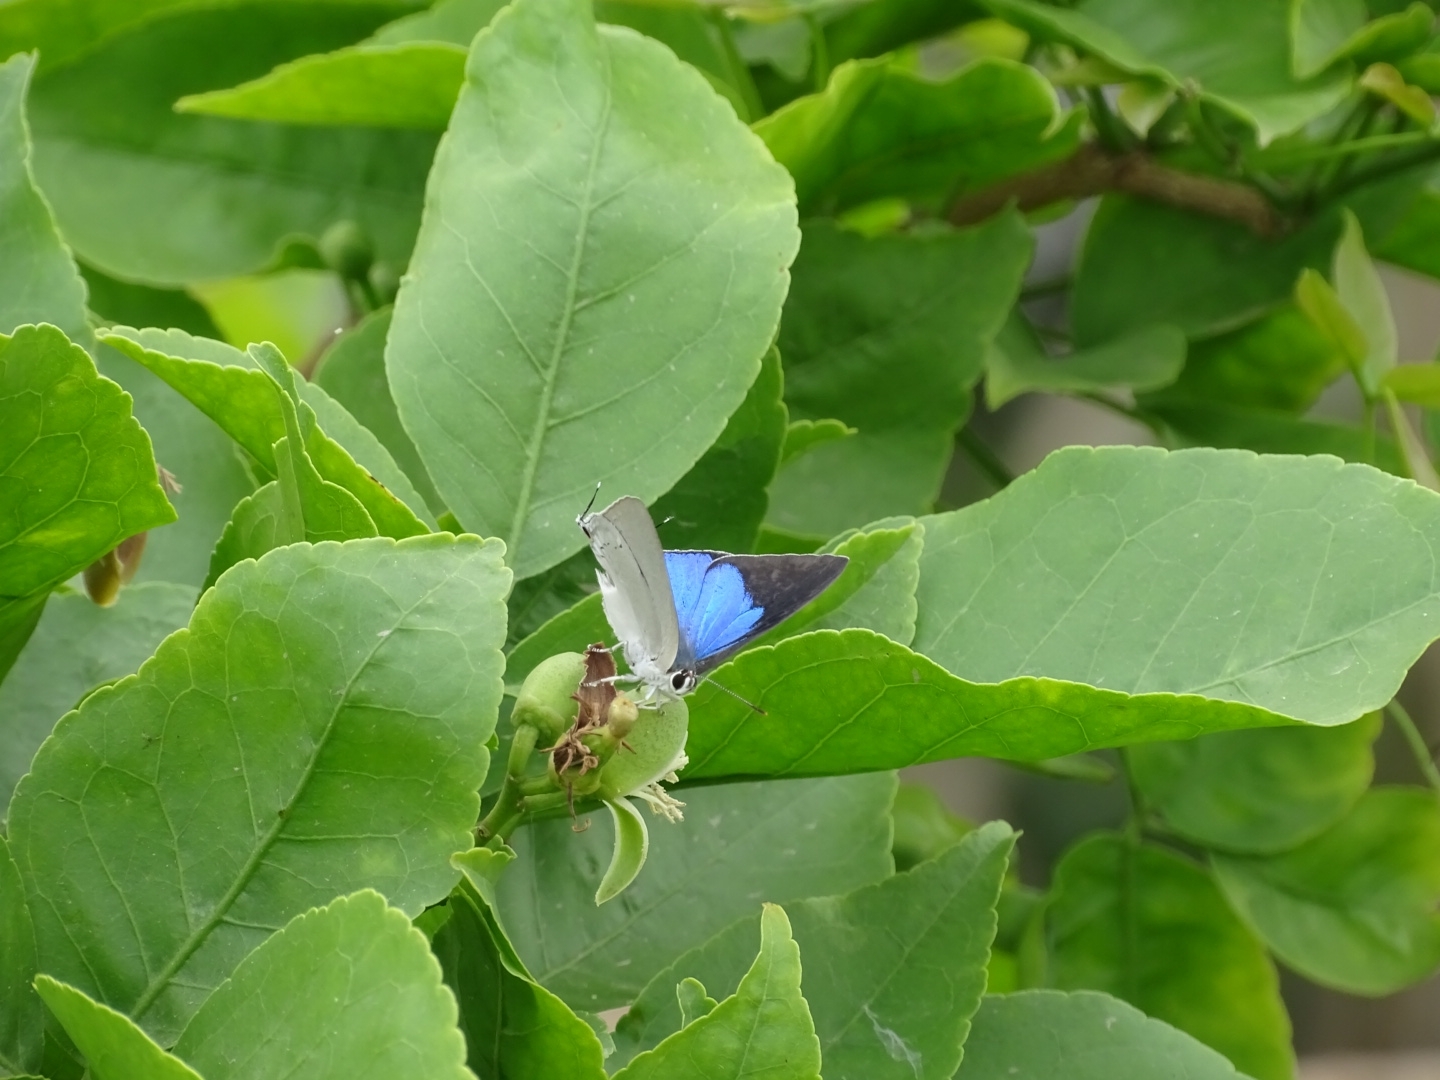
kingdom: Animalia
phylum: Arthropoda
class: Insecta
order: Lepidoptera
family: Lycaenidae
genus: Tajuria
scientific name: Tajuria cippus
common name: Peacock royal
